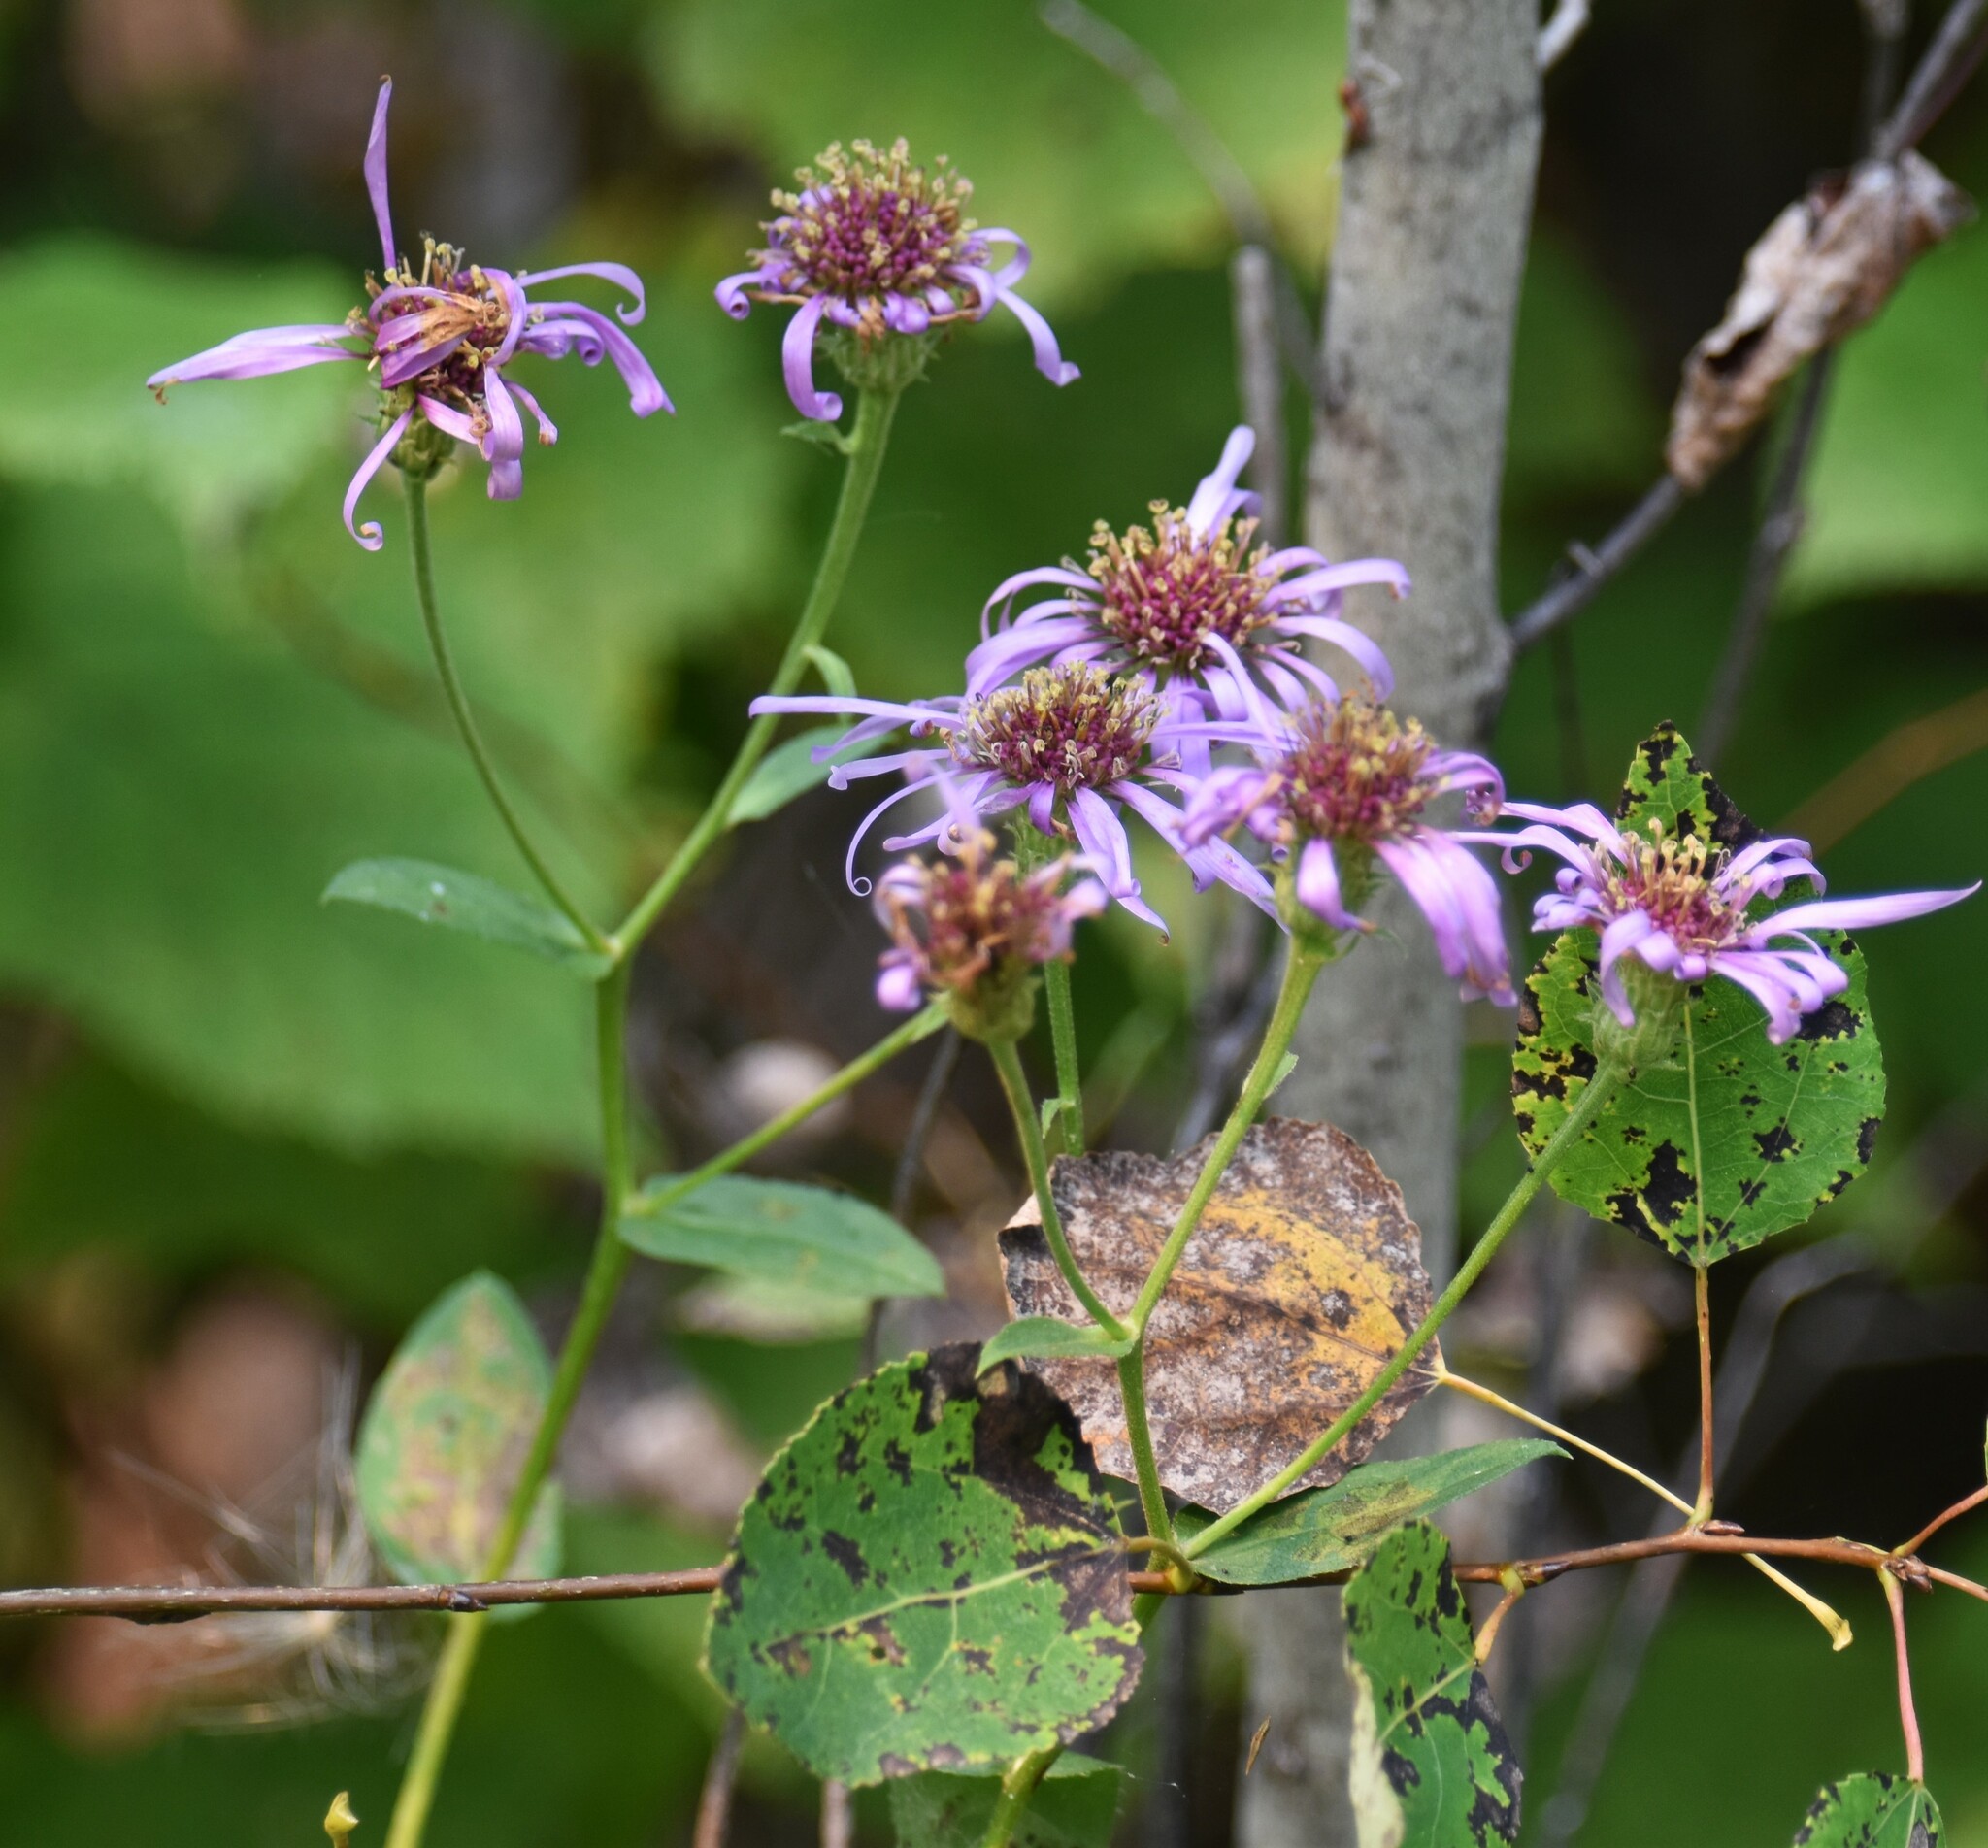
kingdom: Plantae
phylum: Tracheophyta
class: Magnoliopsida
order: Asterales
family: Asteraceae
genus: Eurybia
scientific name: Eurybia conspicua
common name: Showy aster
